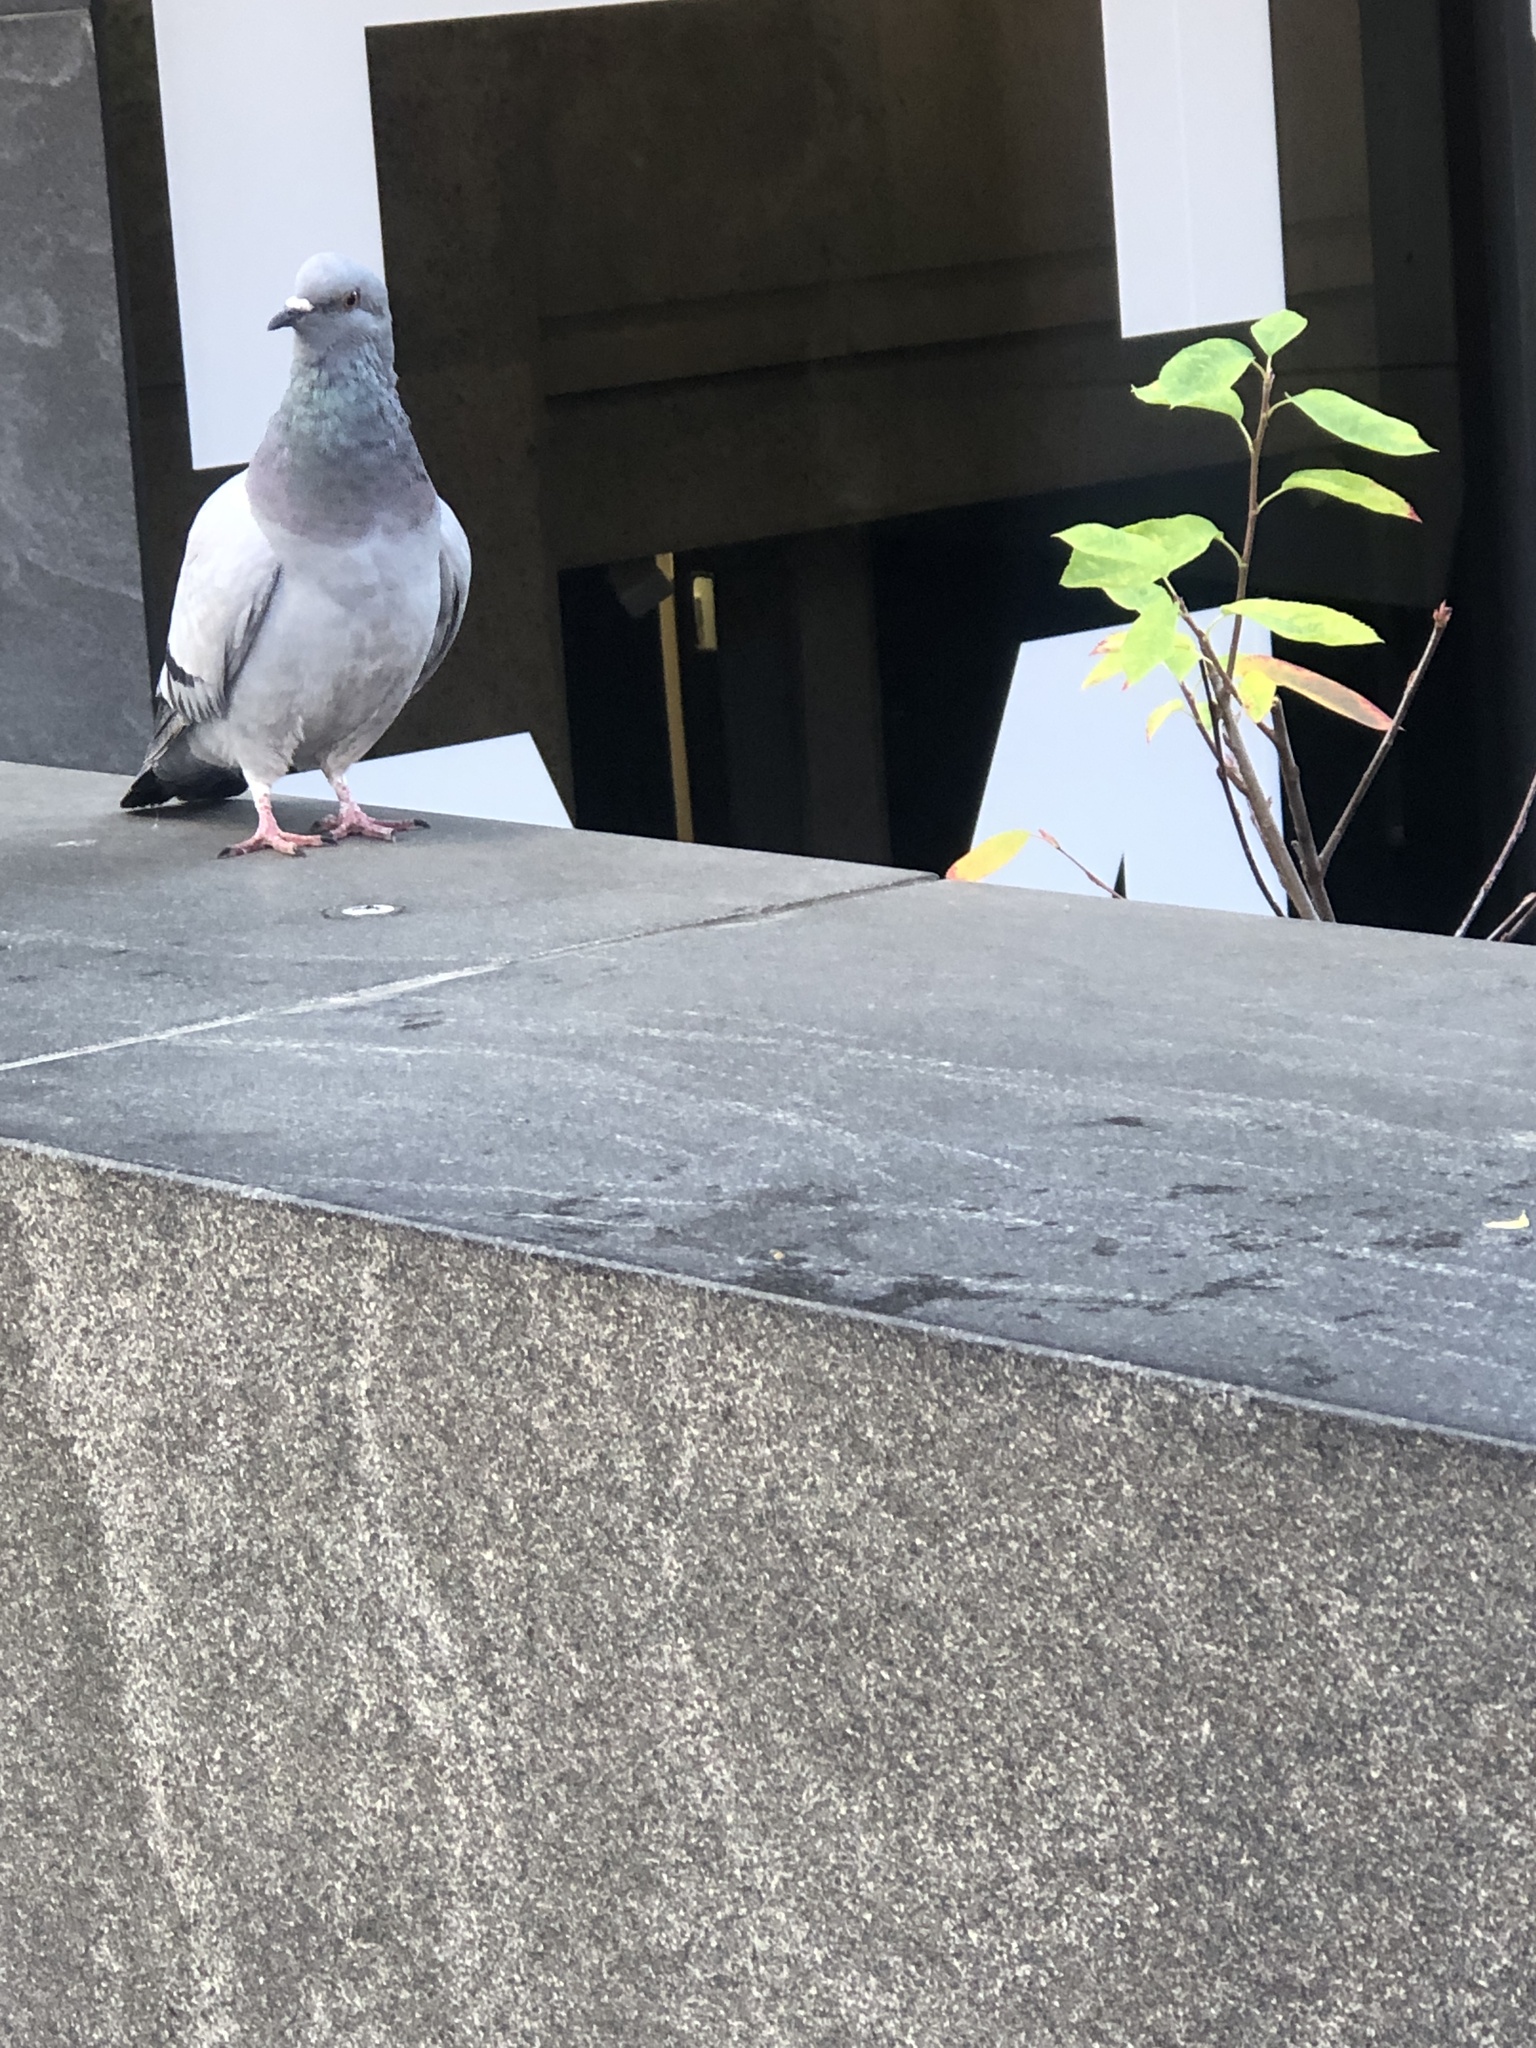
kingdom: Animalia
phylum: Chordata
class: Aves
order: Columbiformes
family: Columbidae
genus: Columba
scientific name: Columba livia
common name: Rock pigeon
